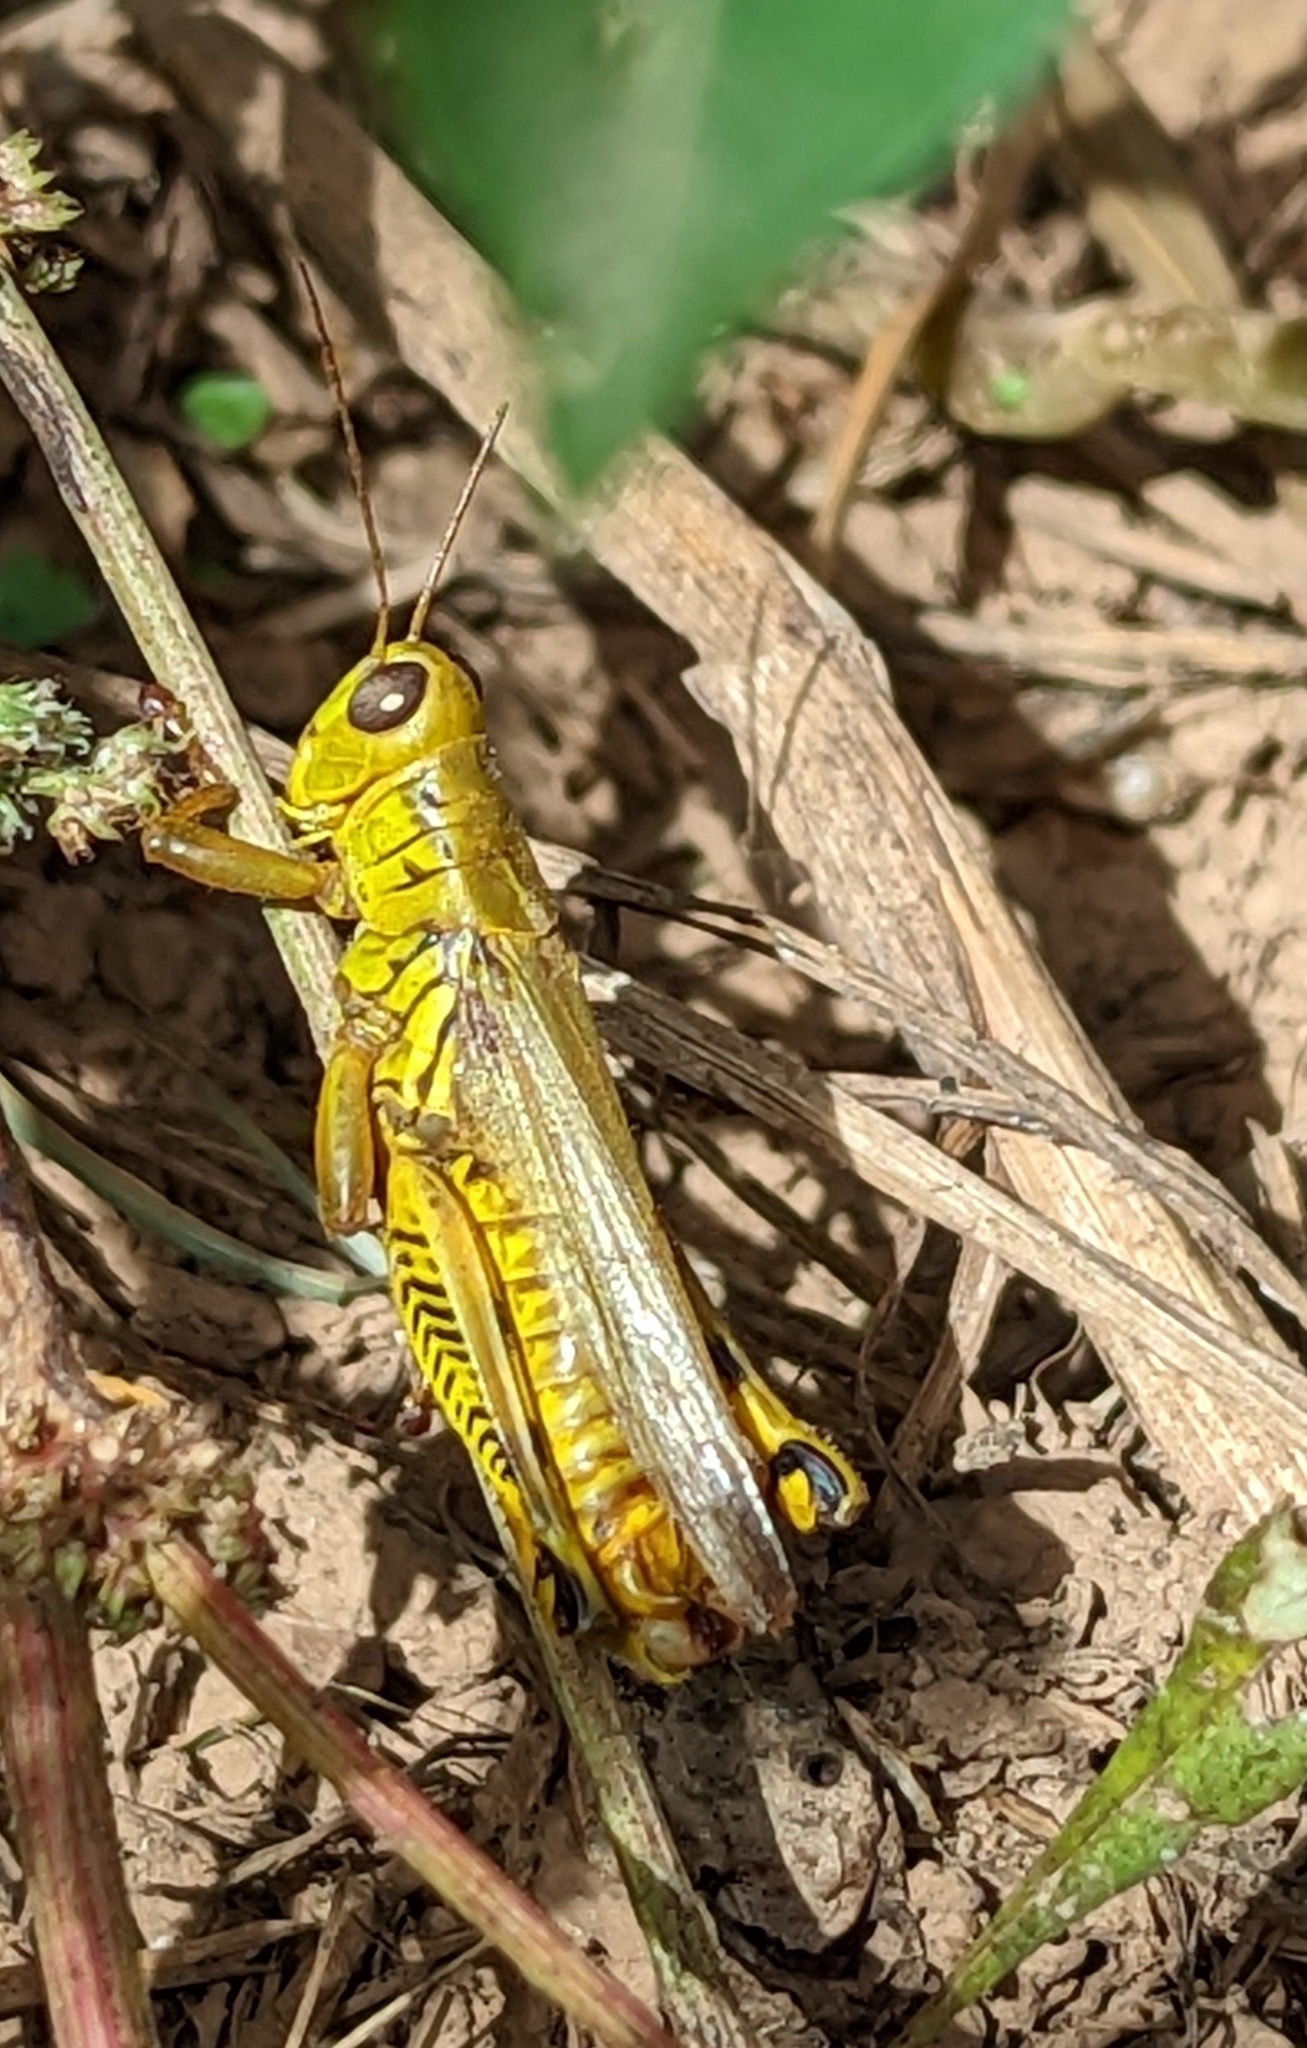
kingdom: Animalia
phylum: Arthropoda
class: Insecta
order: Orthoptera
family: Acrididae
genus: Melanoplus
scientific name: Melanoplus differentialis
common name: Differential grasshopper
